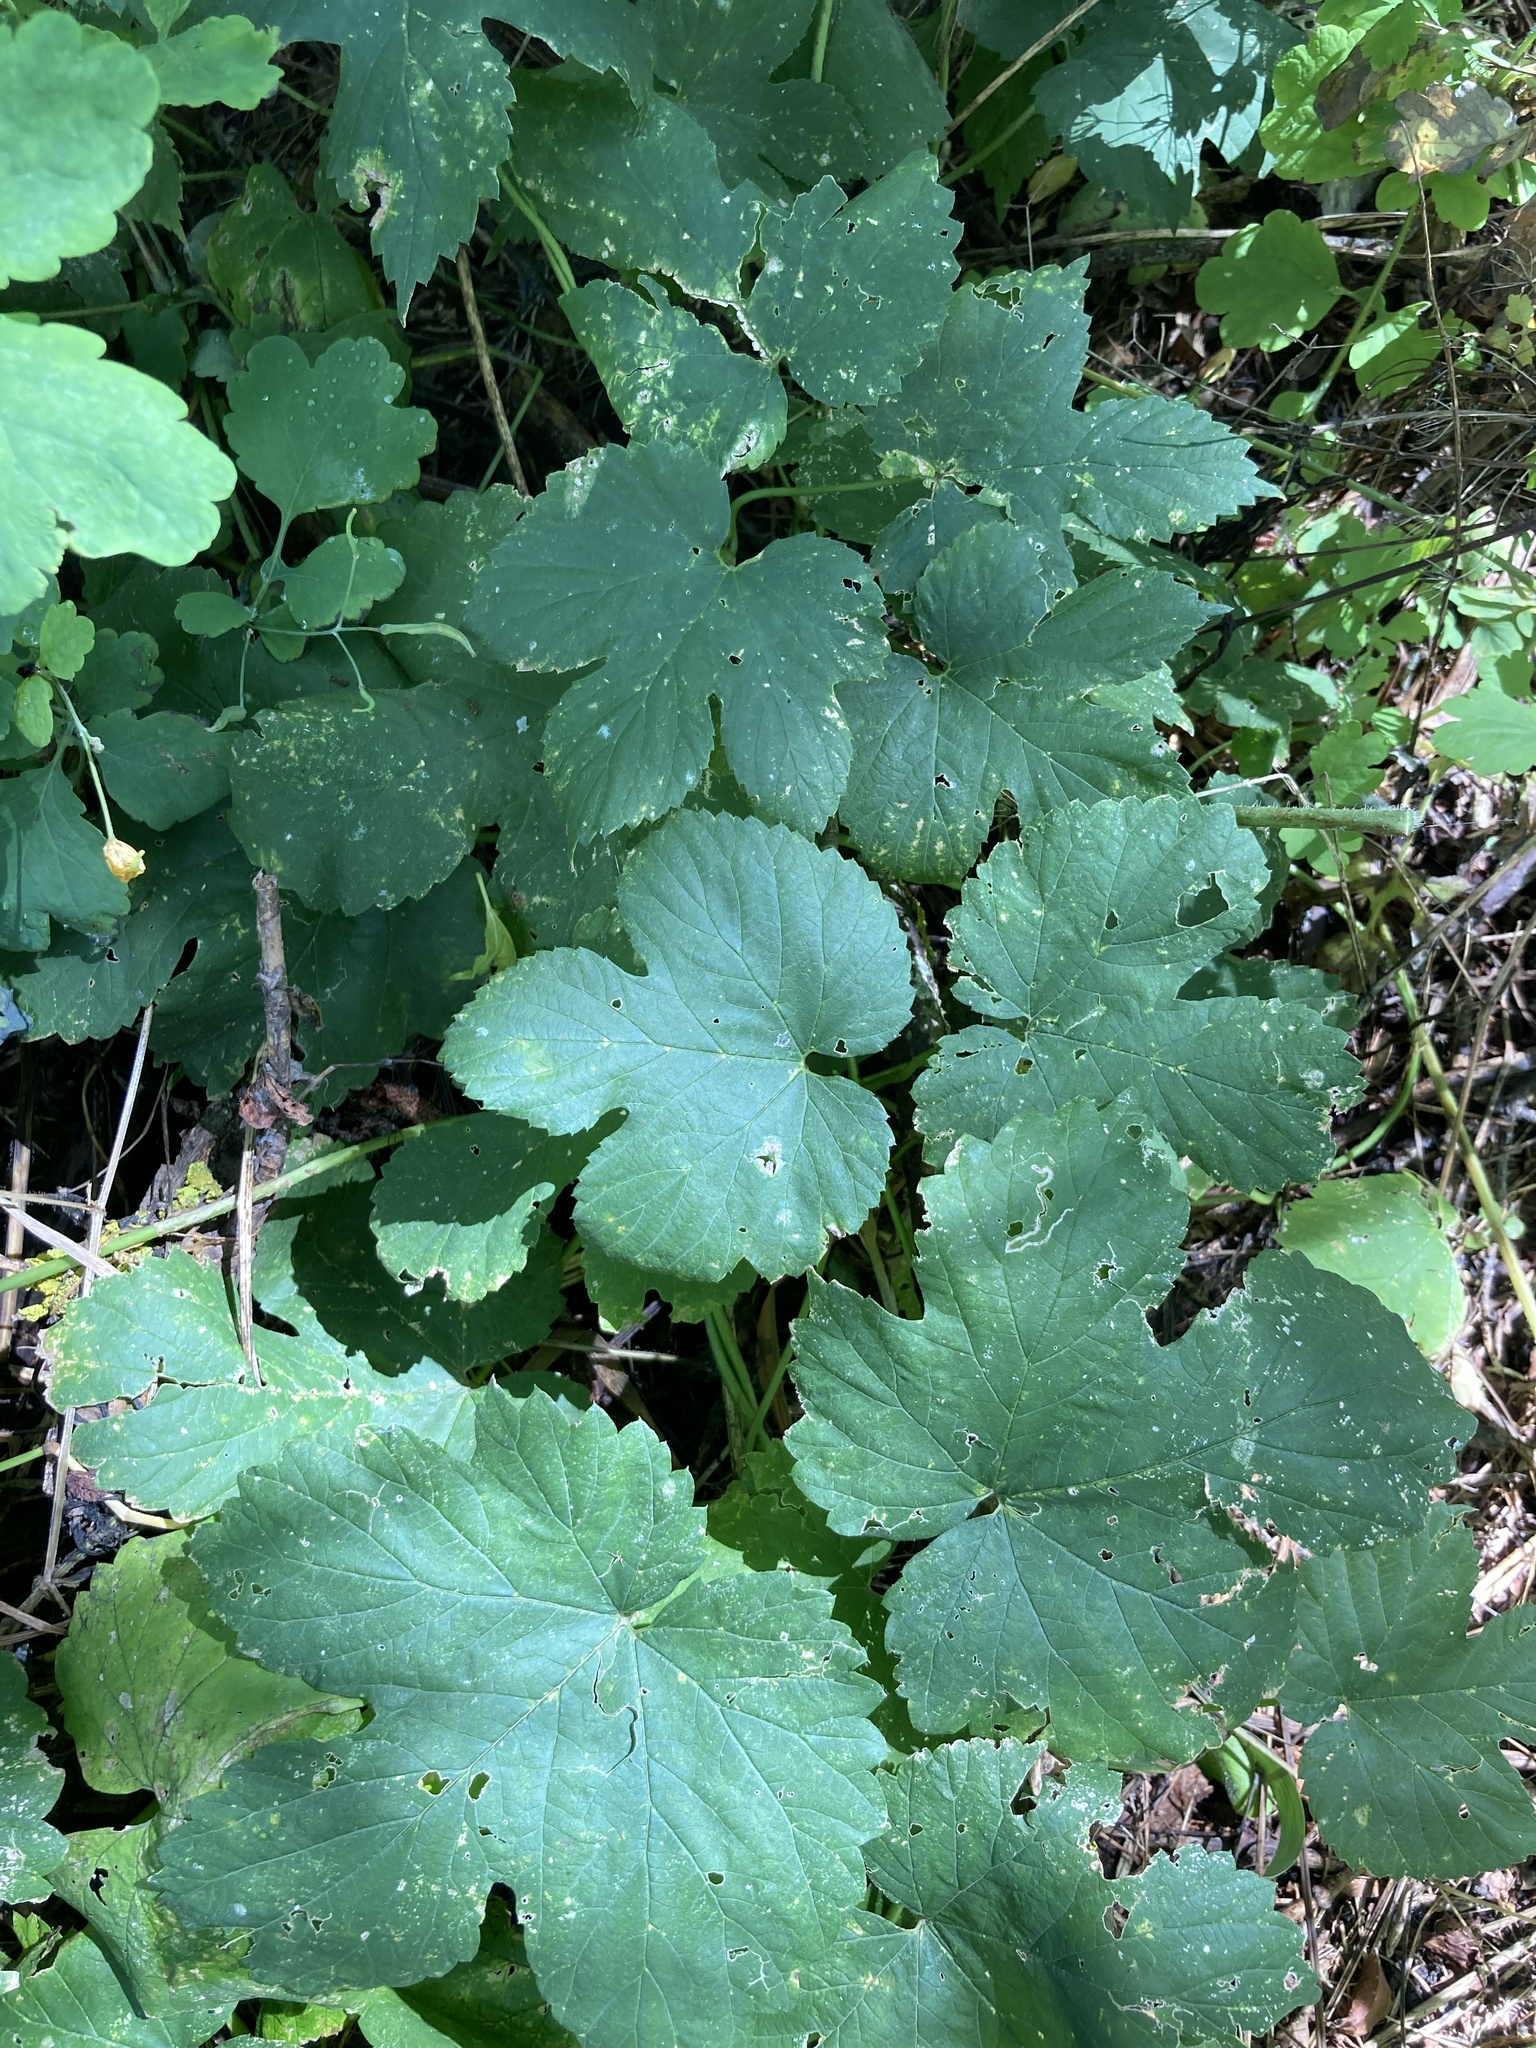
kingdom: Plantae
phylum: Tracheophyta
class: Magnoliopsida
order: Rosales
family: Cannabaceae
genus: Humulus
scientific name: Humulus lupulus
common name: Hop
